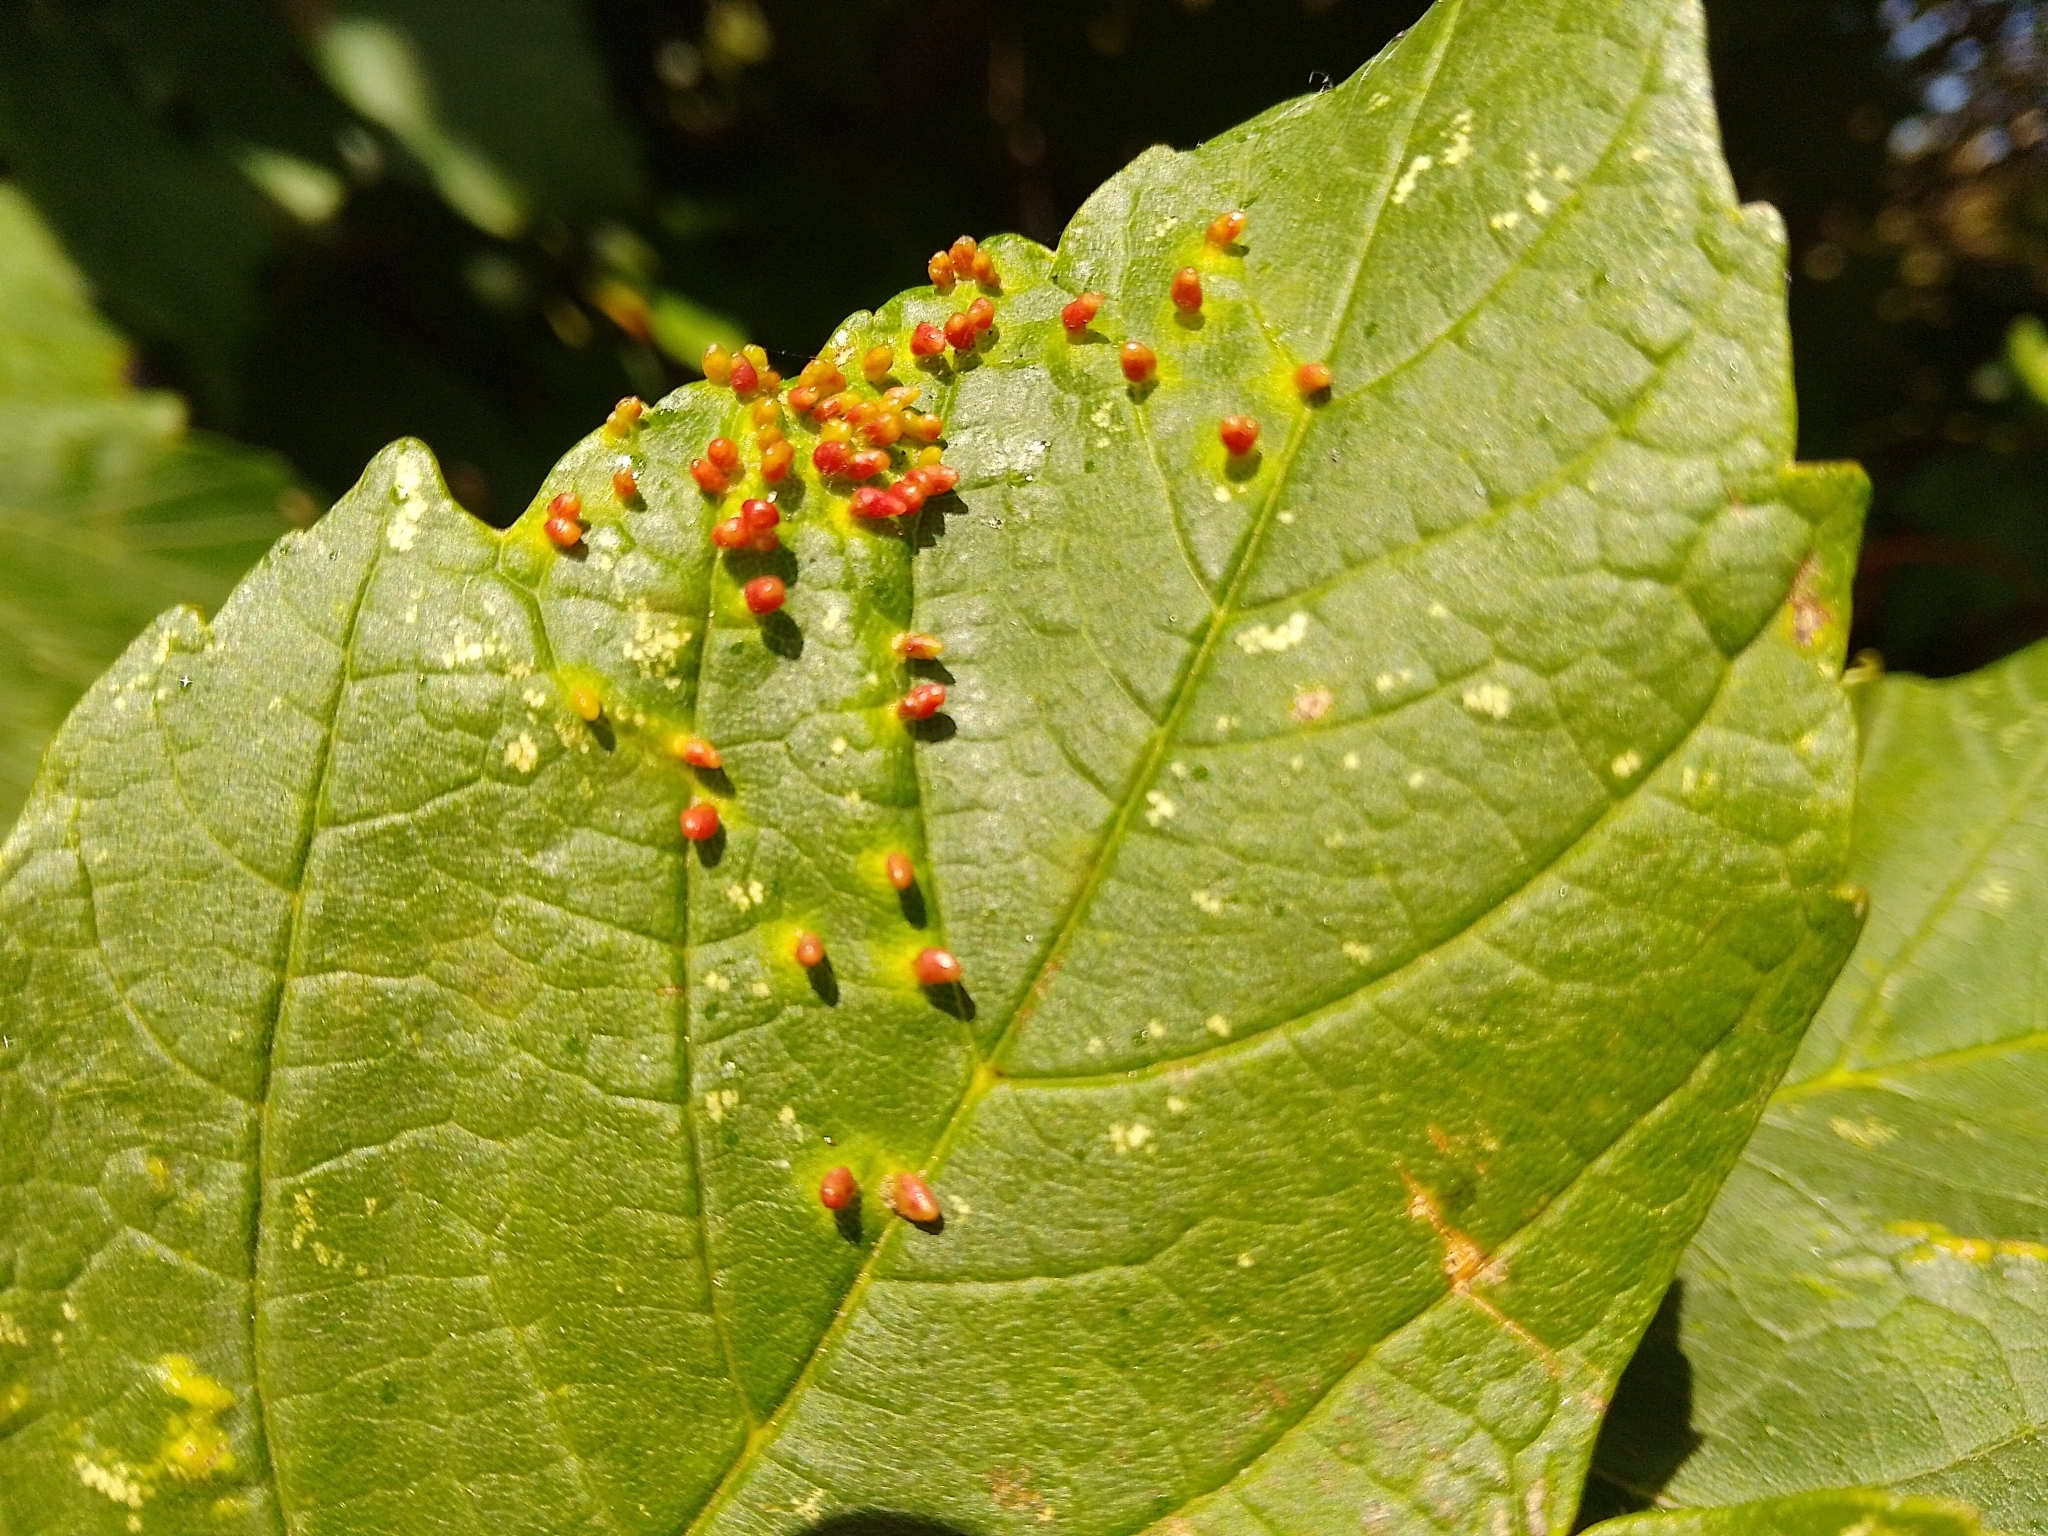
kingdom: Animalia
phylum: Arthropoda
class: Arachnida
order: Trombidiformes
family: Eriophyidae
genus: Aceria
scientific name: Aceria cephaloneus
